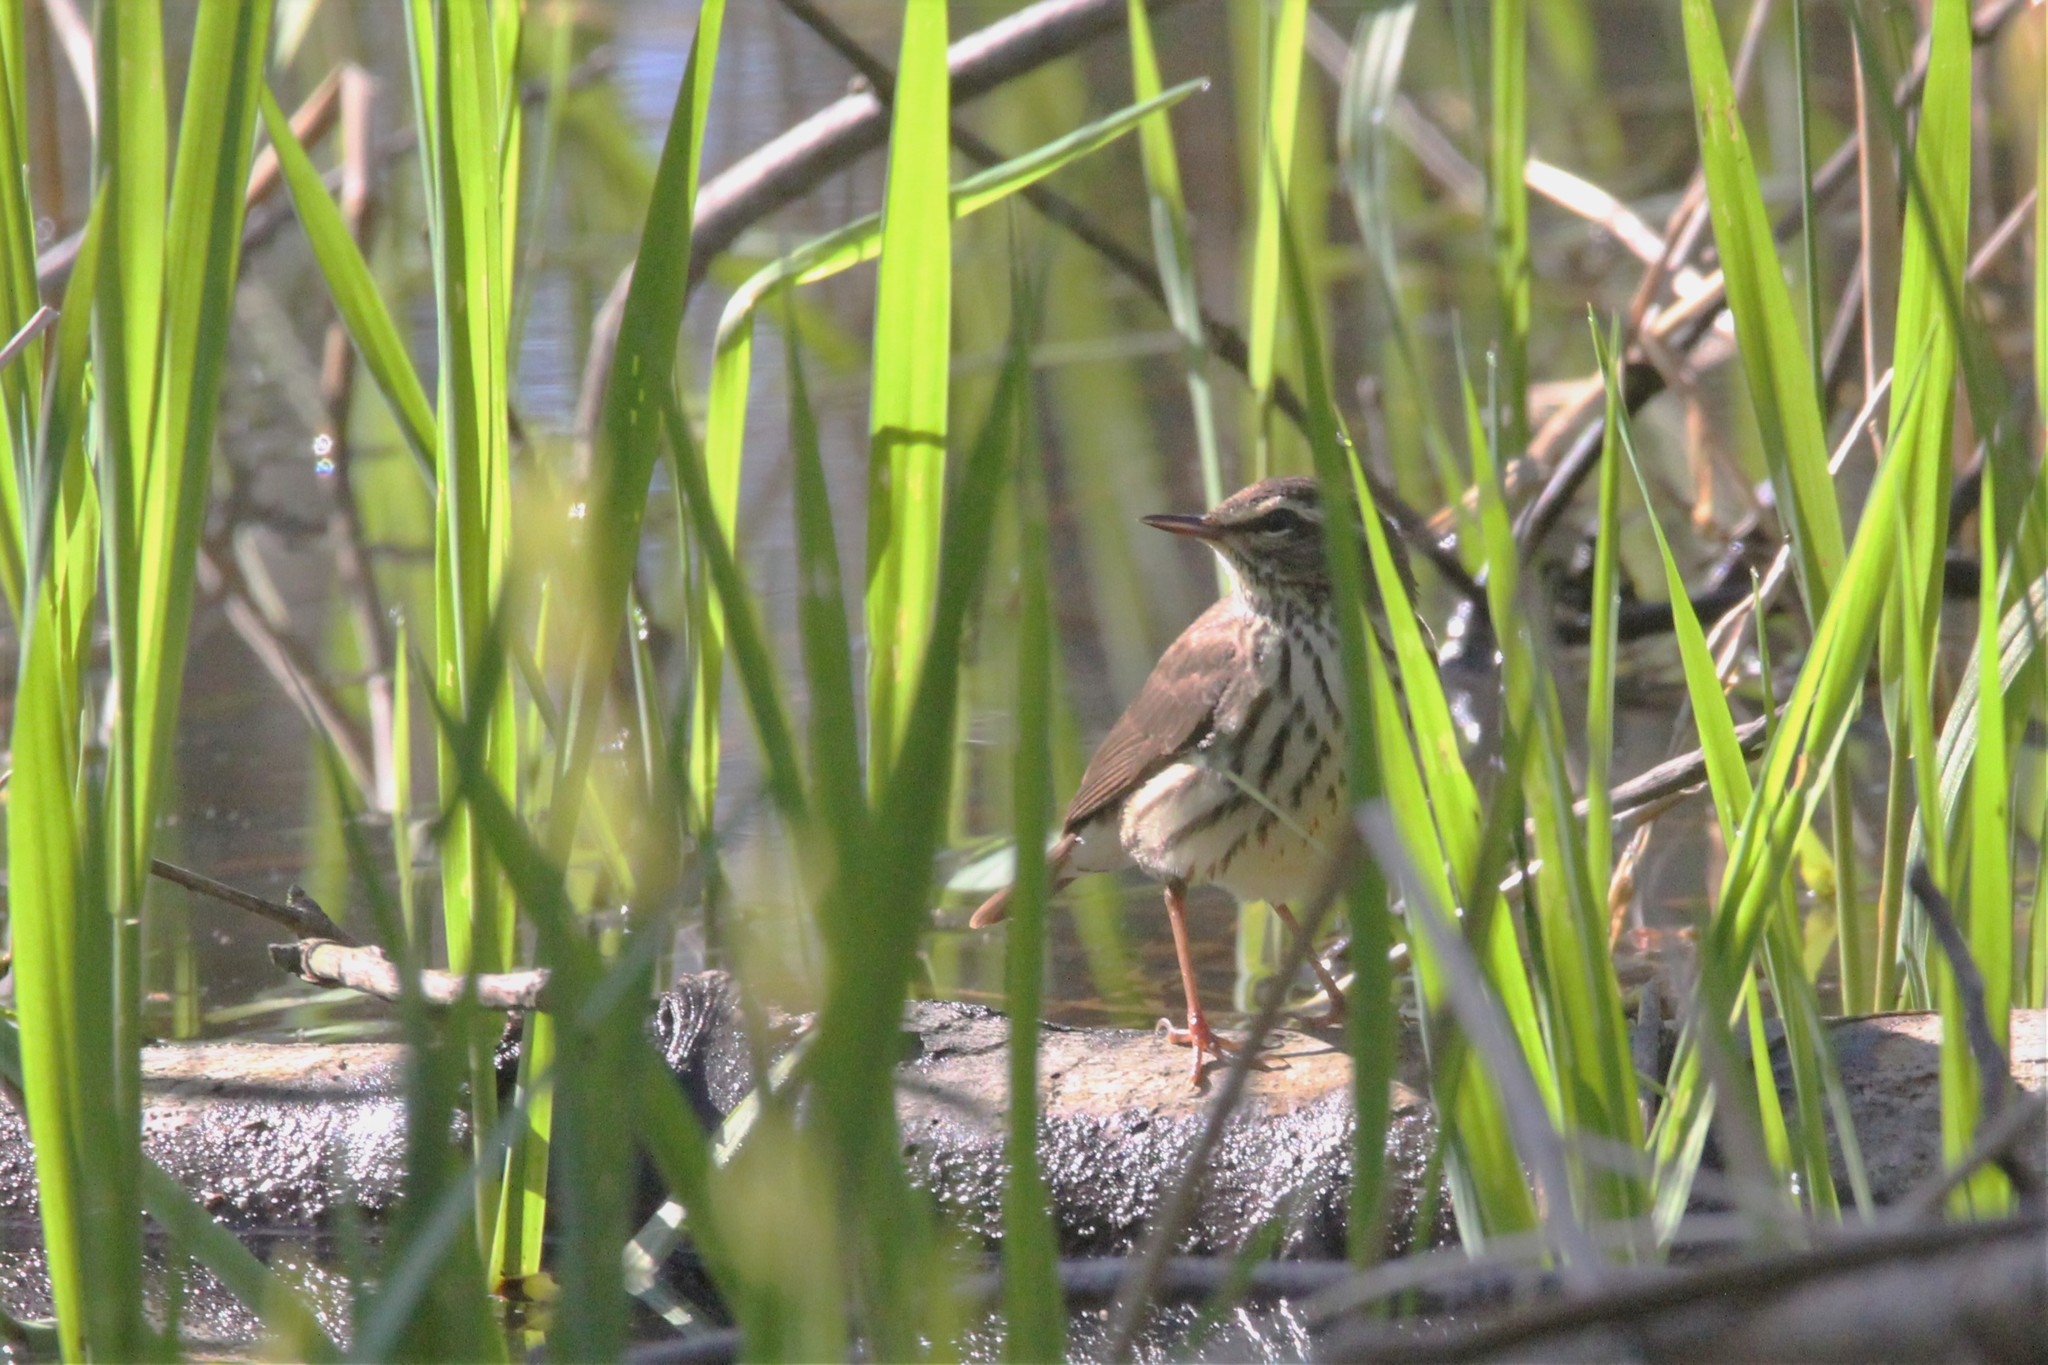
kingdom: Animalia
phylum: Chordata
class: Aves
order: Passeriformes
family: Parulidae
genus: Parkesia
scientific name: Parkesia noveboracensis
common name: Northern waterthrush
